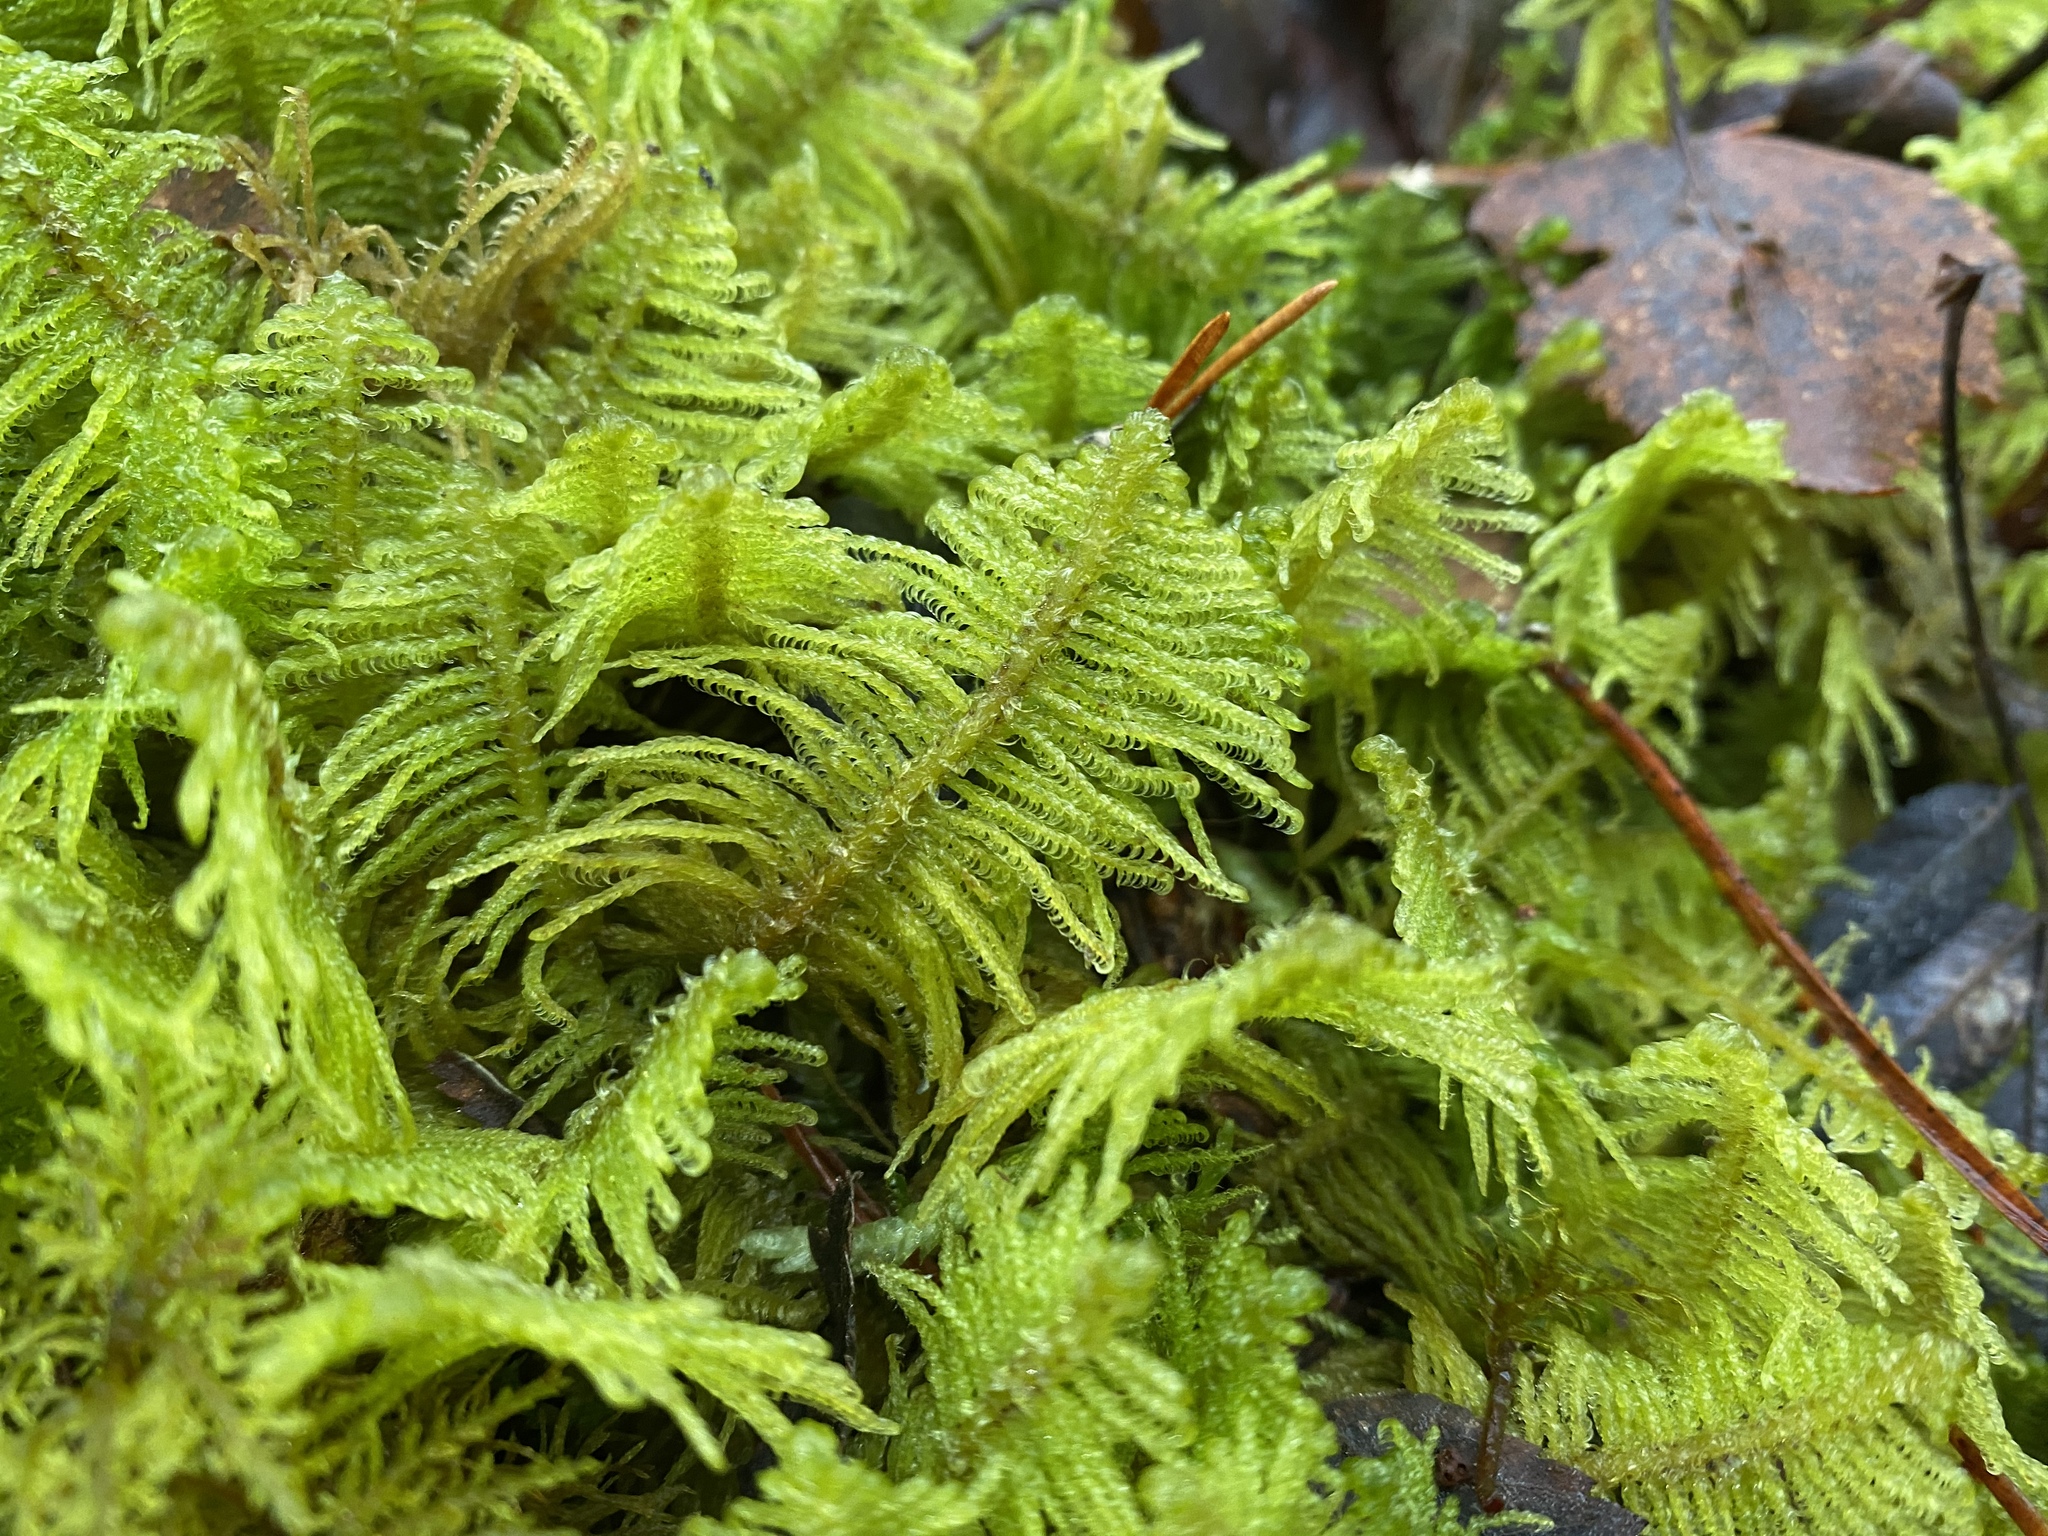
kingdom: Plantae
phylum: Bryophyta
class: Bryopsida
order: Hypnales
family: Pylaisiaceae
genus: Ptilium
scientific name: Ptilium crista-castrensis
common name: Knight's plume moss
